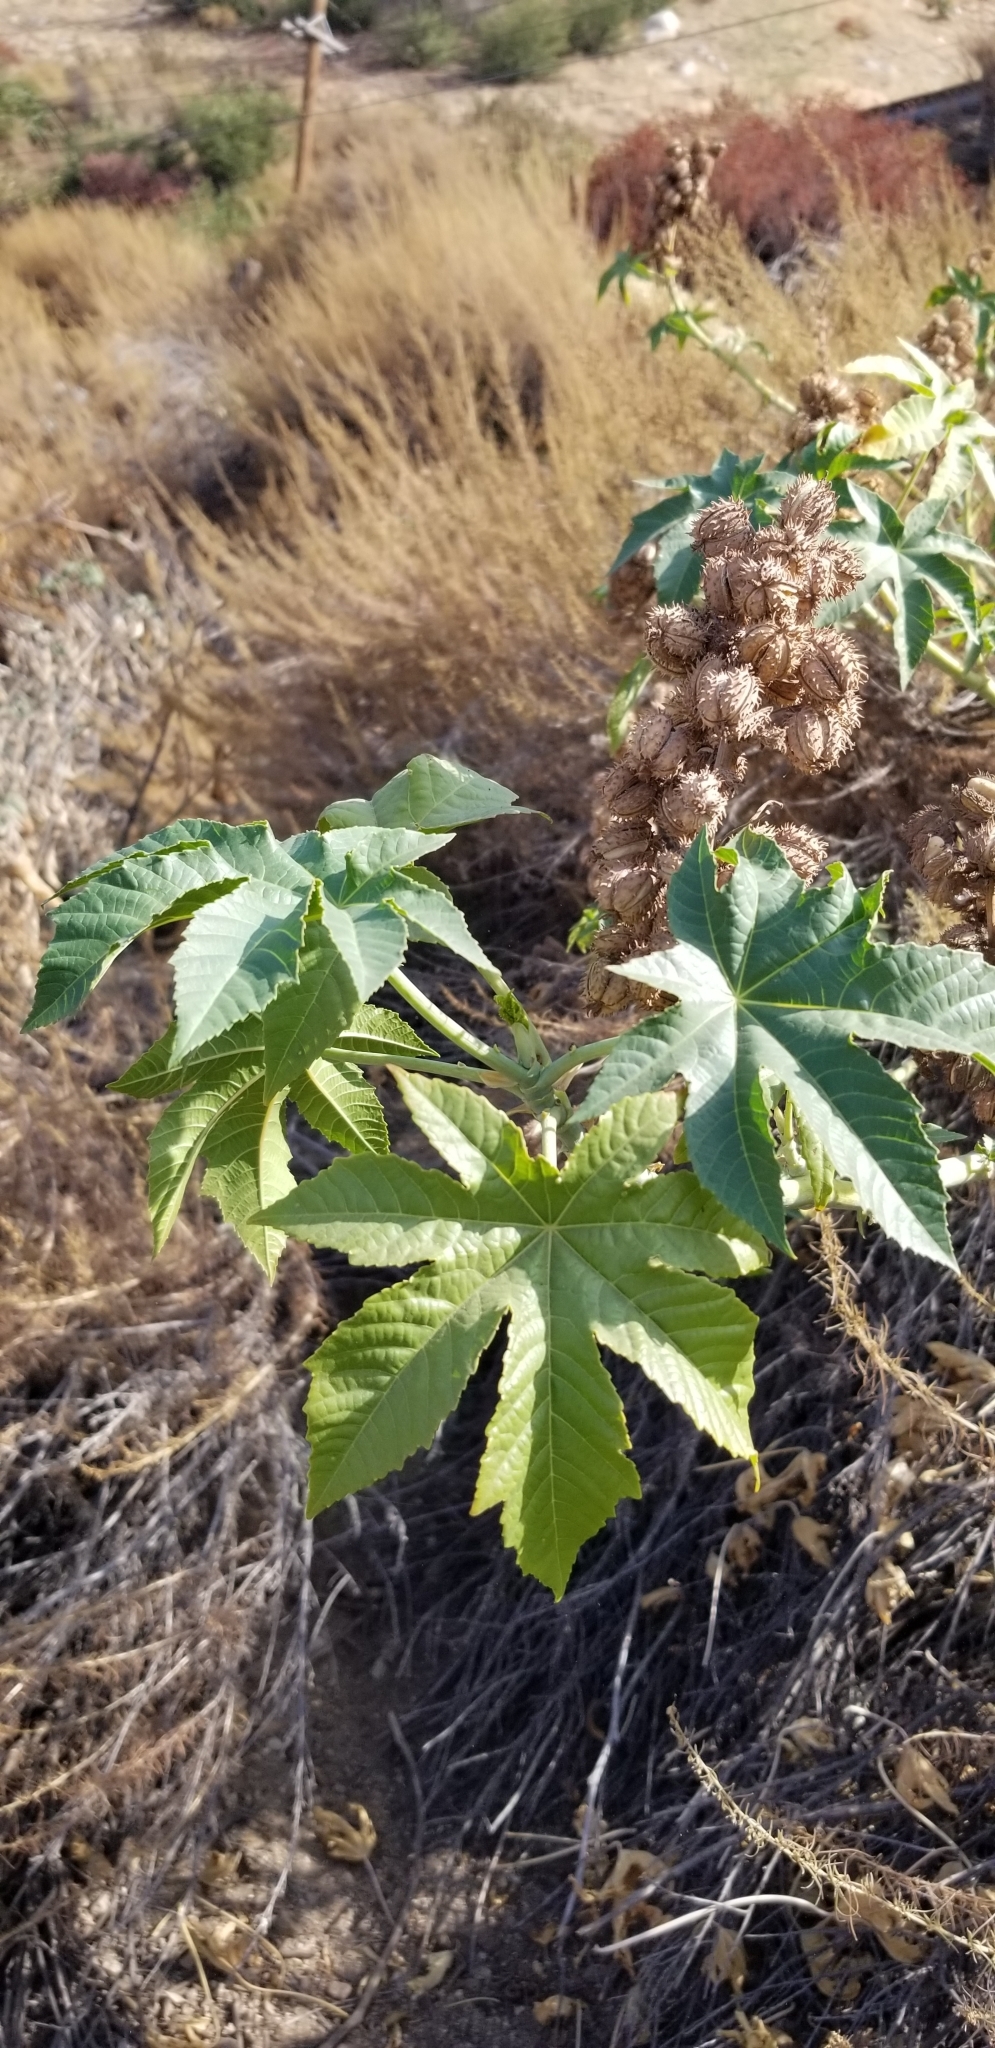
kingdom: Plantae
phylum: Tracheophyta
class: Magnoliopsida
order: Malpighiales
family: Euphorbiaceae
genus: Ricinus
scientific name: Ricinus communis
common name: Castor-oil-plant
